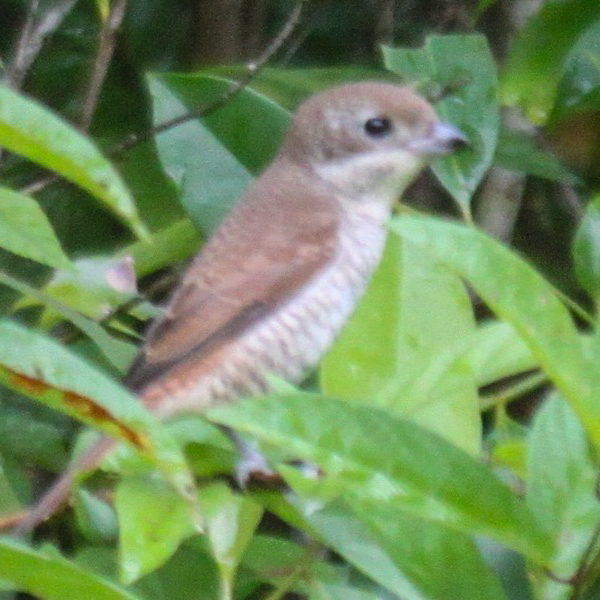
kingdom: Animalia
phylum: Chordata
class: Aves
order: Passeriformes
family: Laniidae
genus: Lanius
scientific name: Lanius tigrinus
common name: Tiger shrike
